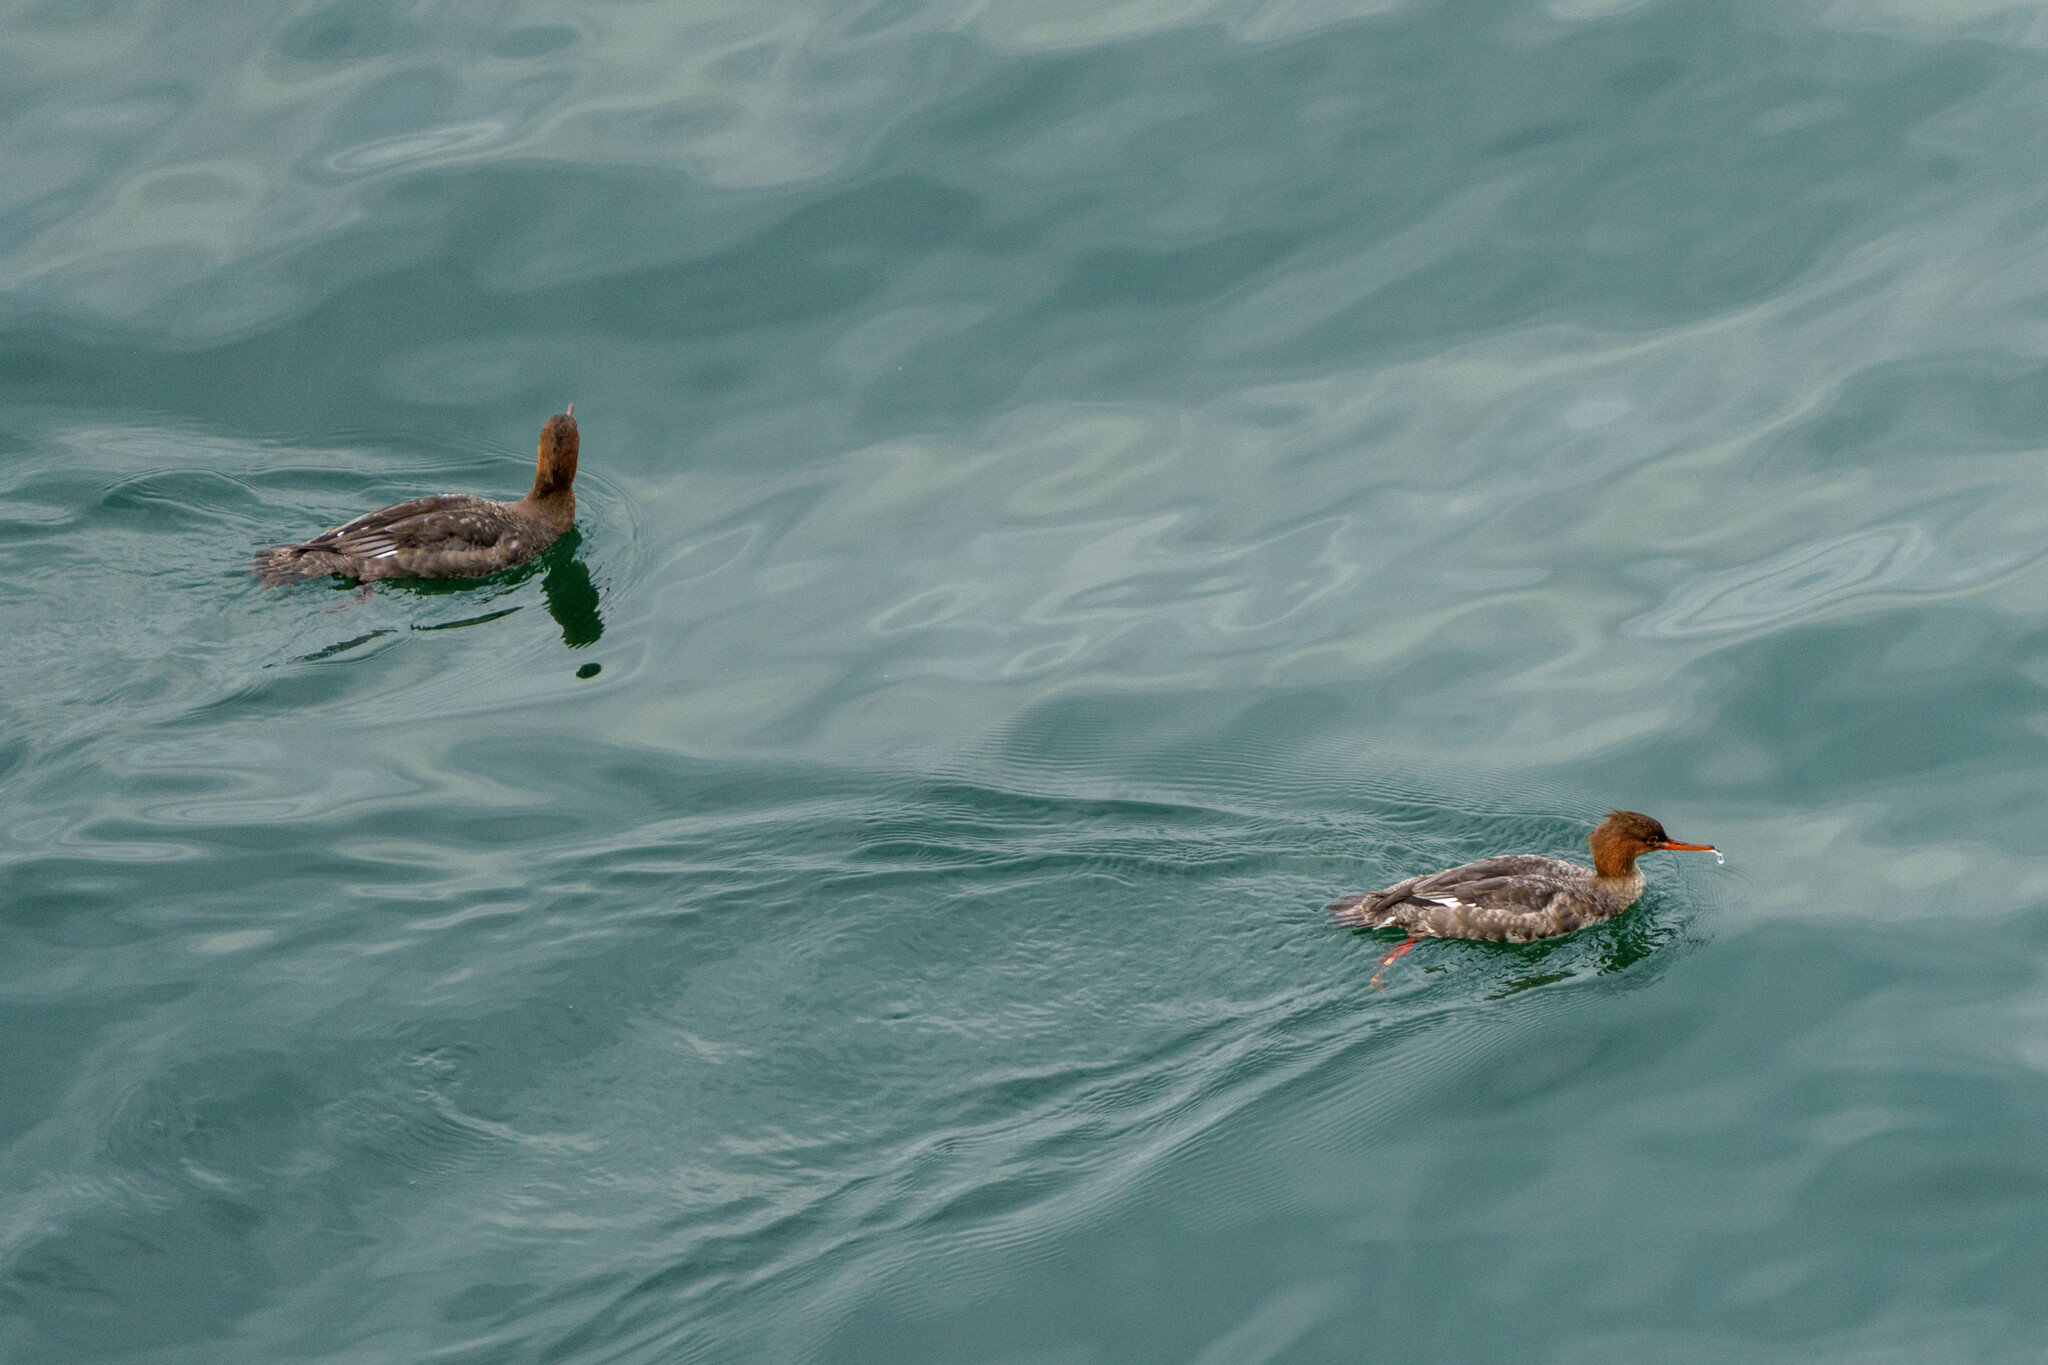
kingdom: Animalia
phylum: Chordata
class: Aves
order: Anseriformes
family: Anatidae
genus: Mergus
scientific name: Mergus serrator
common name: Red-breasted merganser
